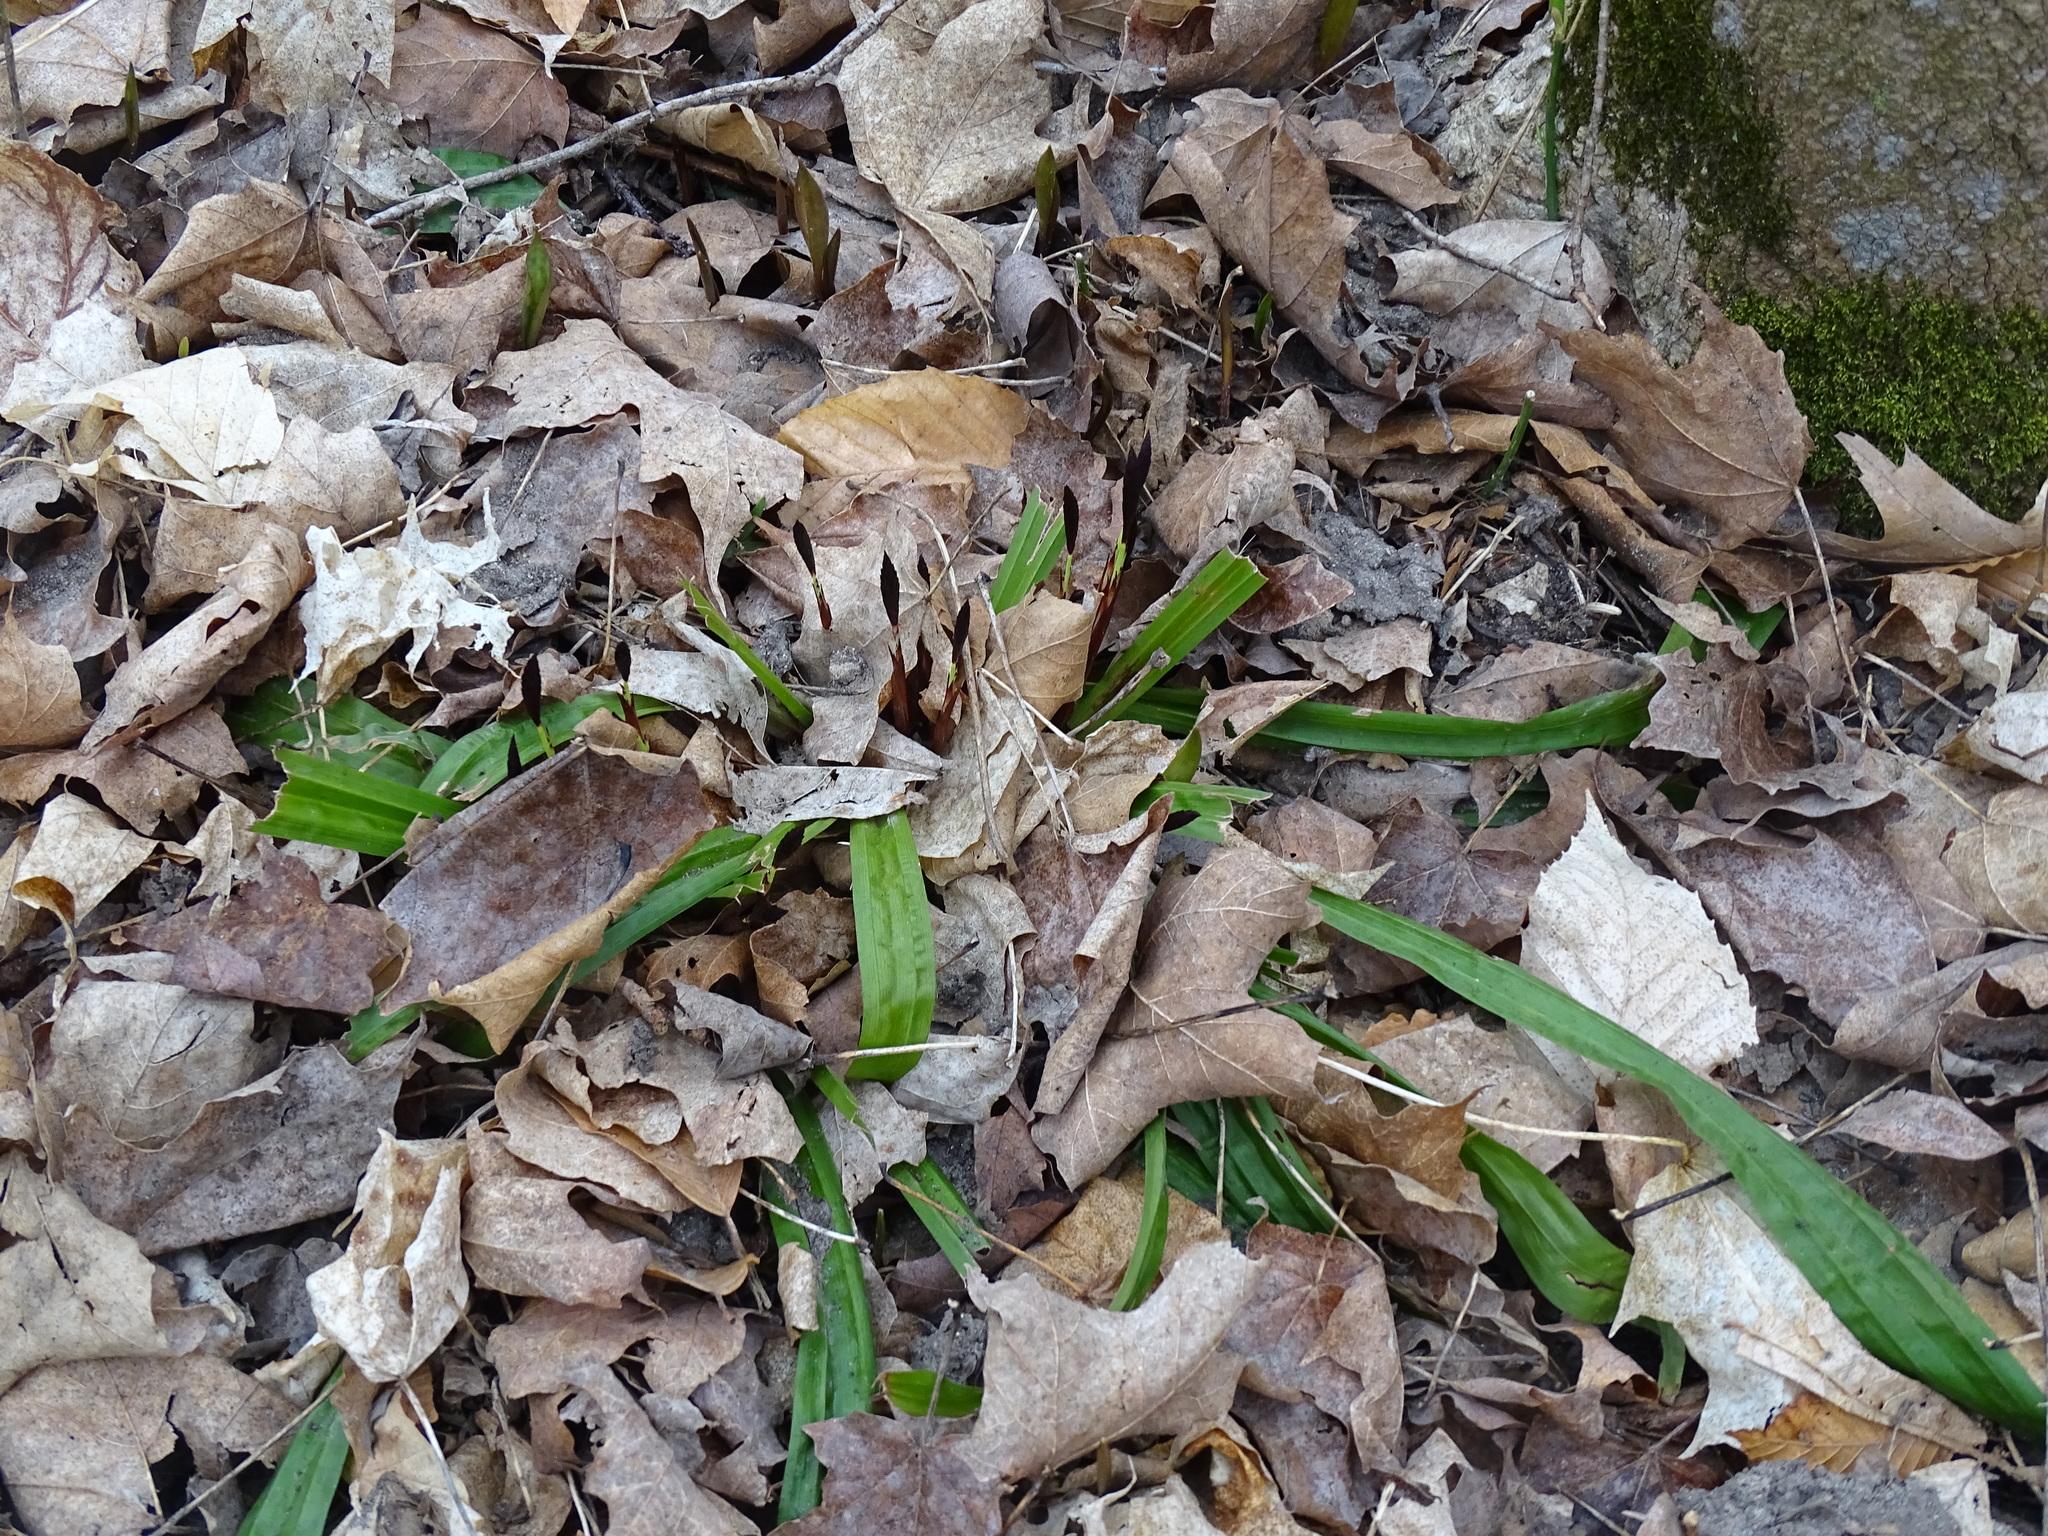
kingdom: Plantae
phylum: Tracheophyta
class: Liliopsida
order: Poales
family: Cyperaceae
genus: Carex
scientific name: Carex plantaginea
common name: Plantain-leaved sedge
